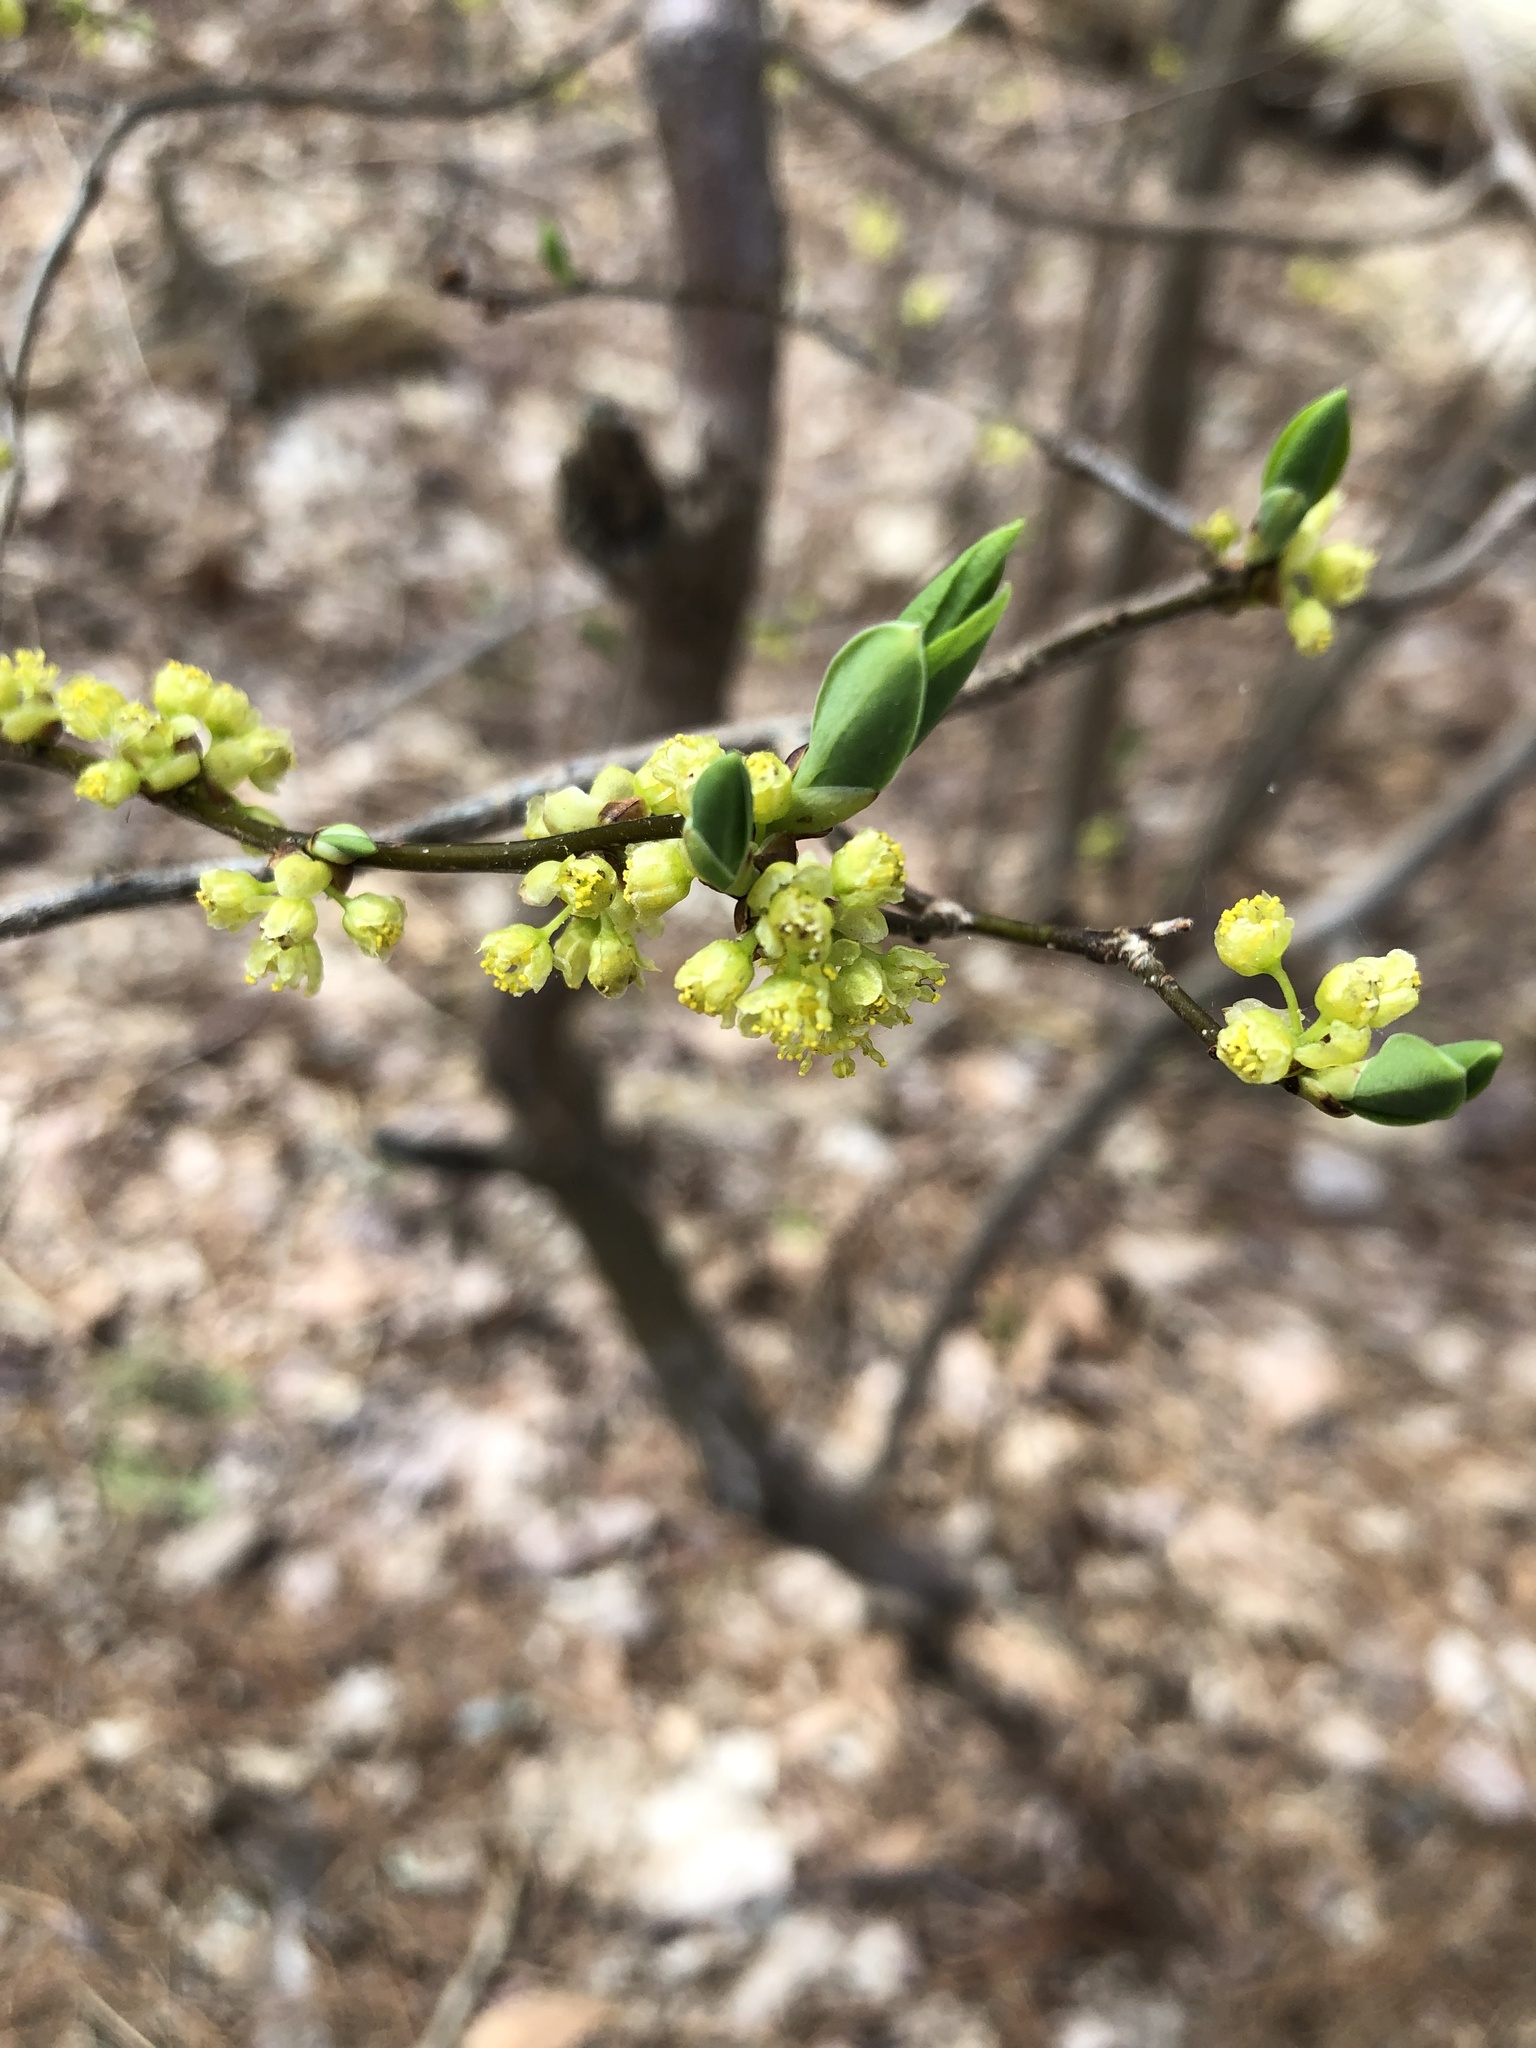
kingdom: Plantae
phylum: Tracheophyta
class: Magnoliopsida
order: Laurales
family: Lauraceae
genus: Lindera
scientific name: Lindera benzoin
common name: Spicebush
